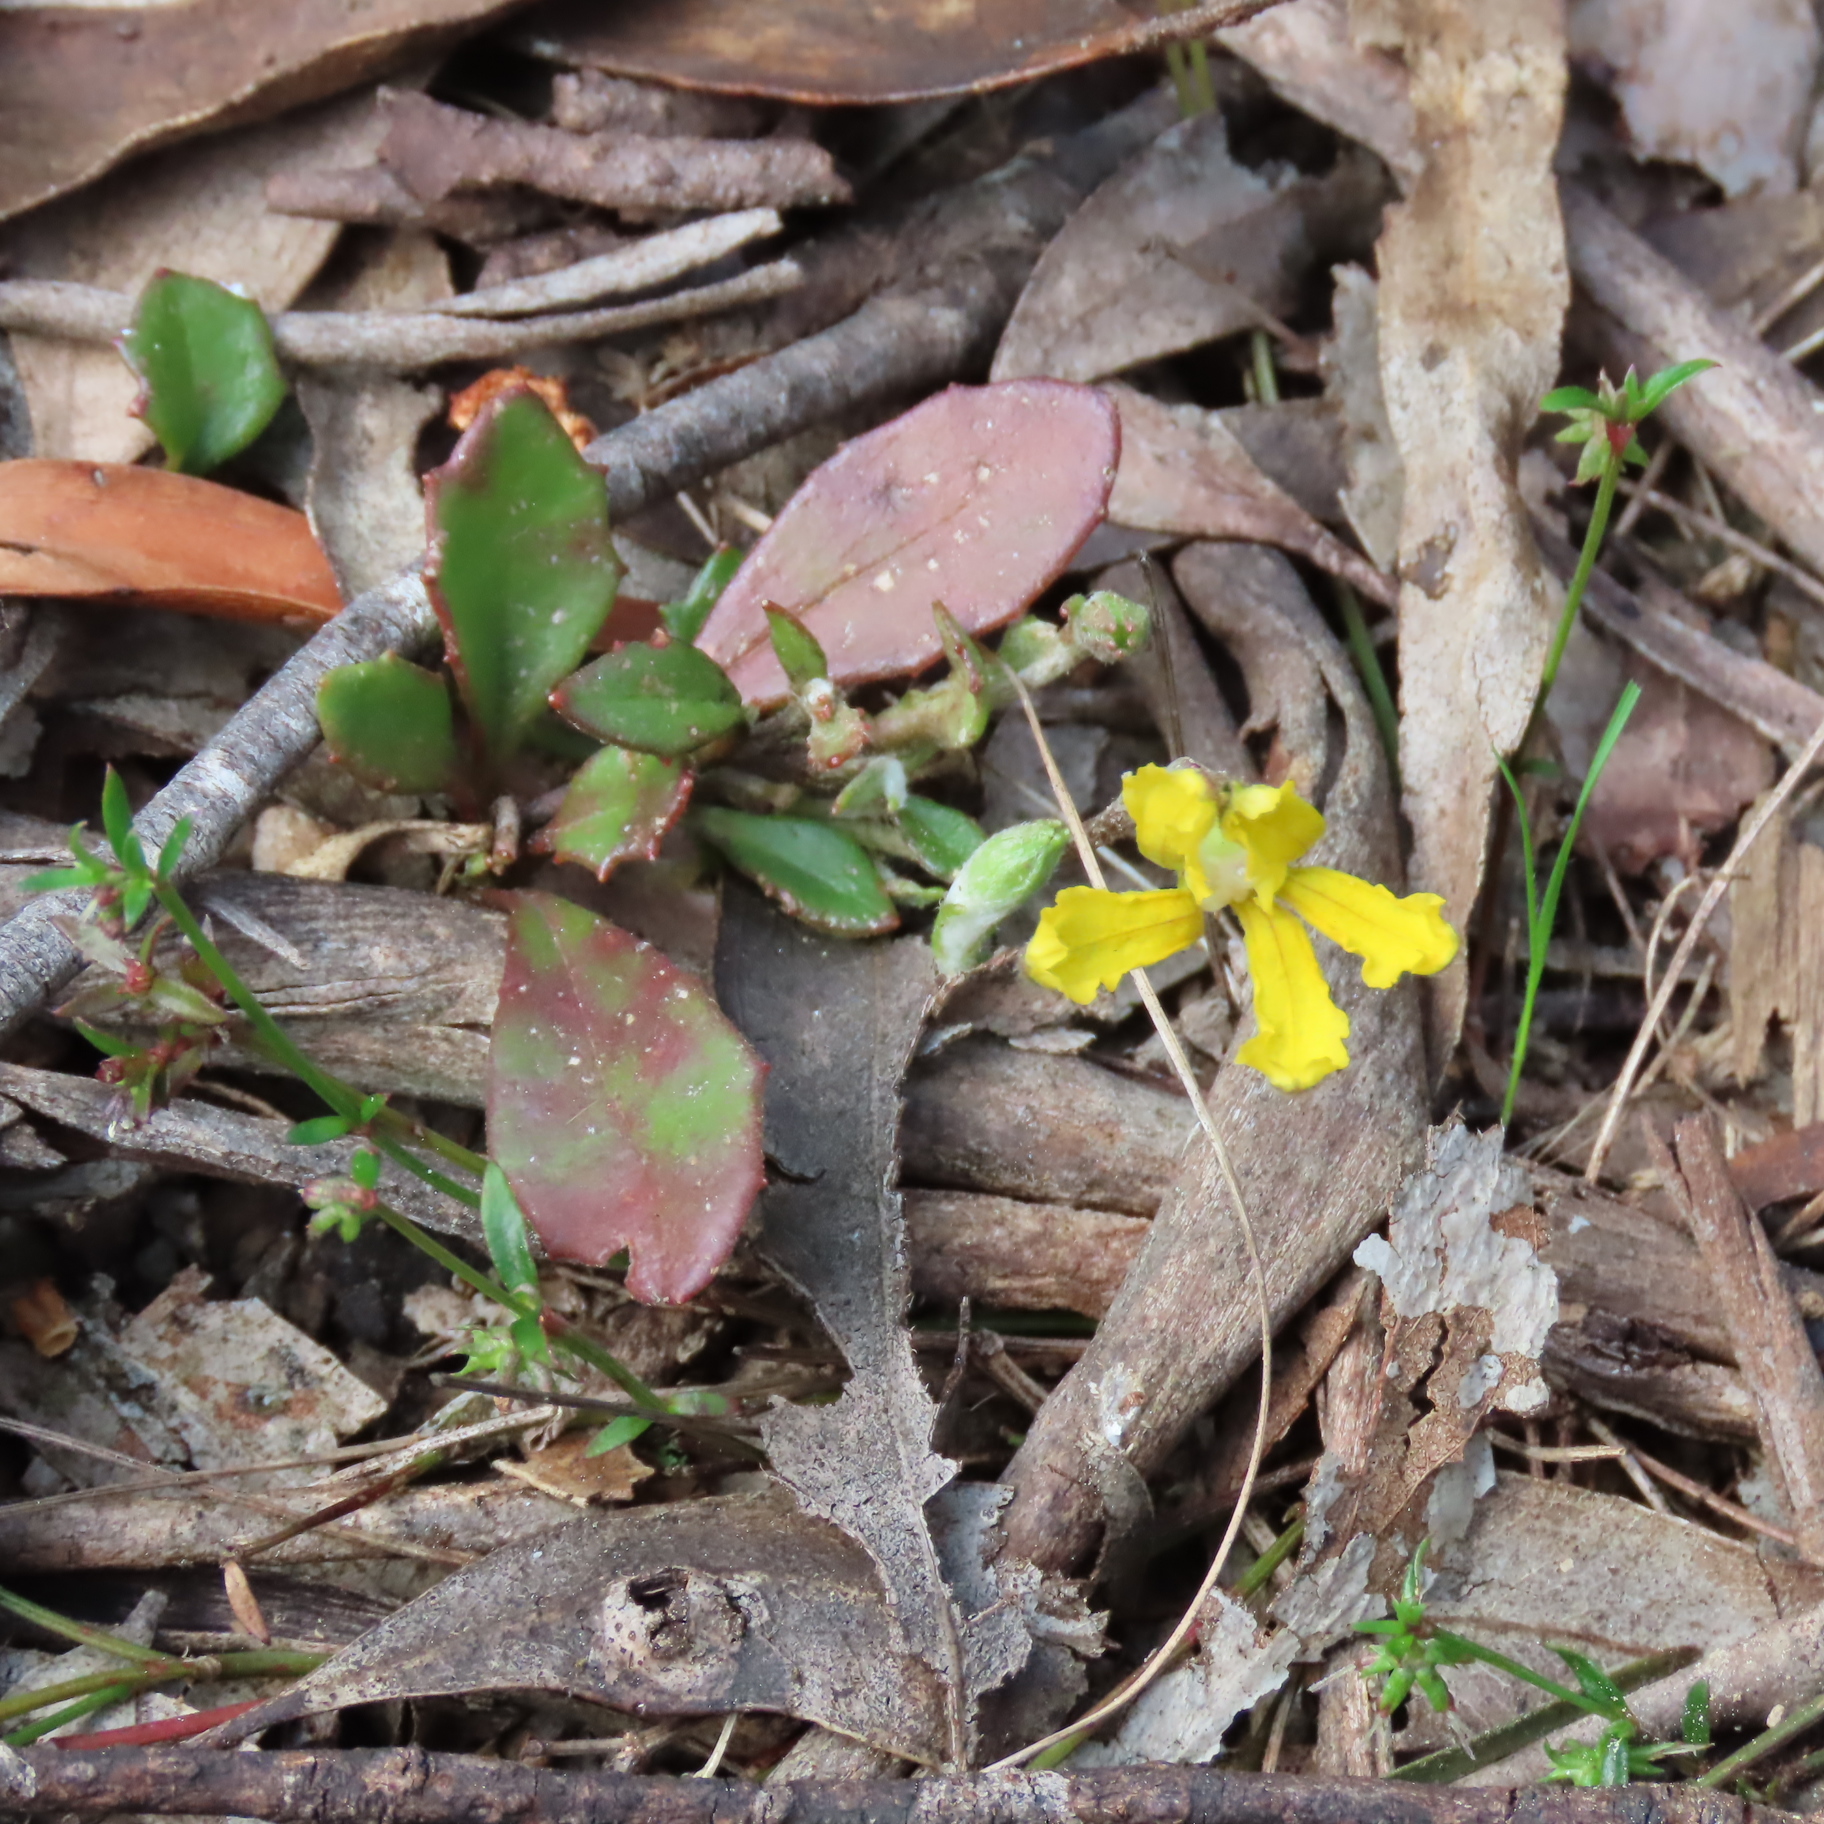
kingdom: Plantae
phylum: Tracheophyta
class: Magnoliopsida
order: Asterales
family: Goodeniaceae
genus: Goodenia
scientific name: Goodenia lanata
